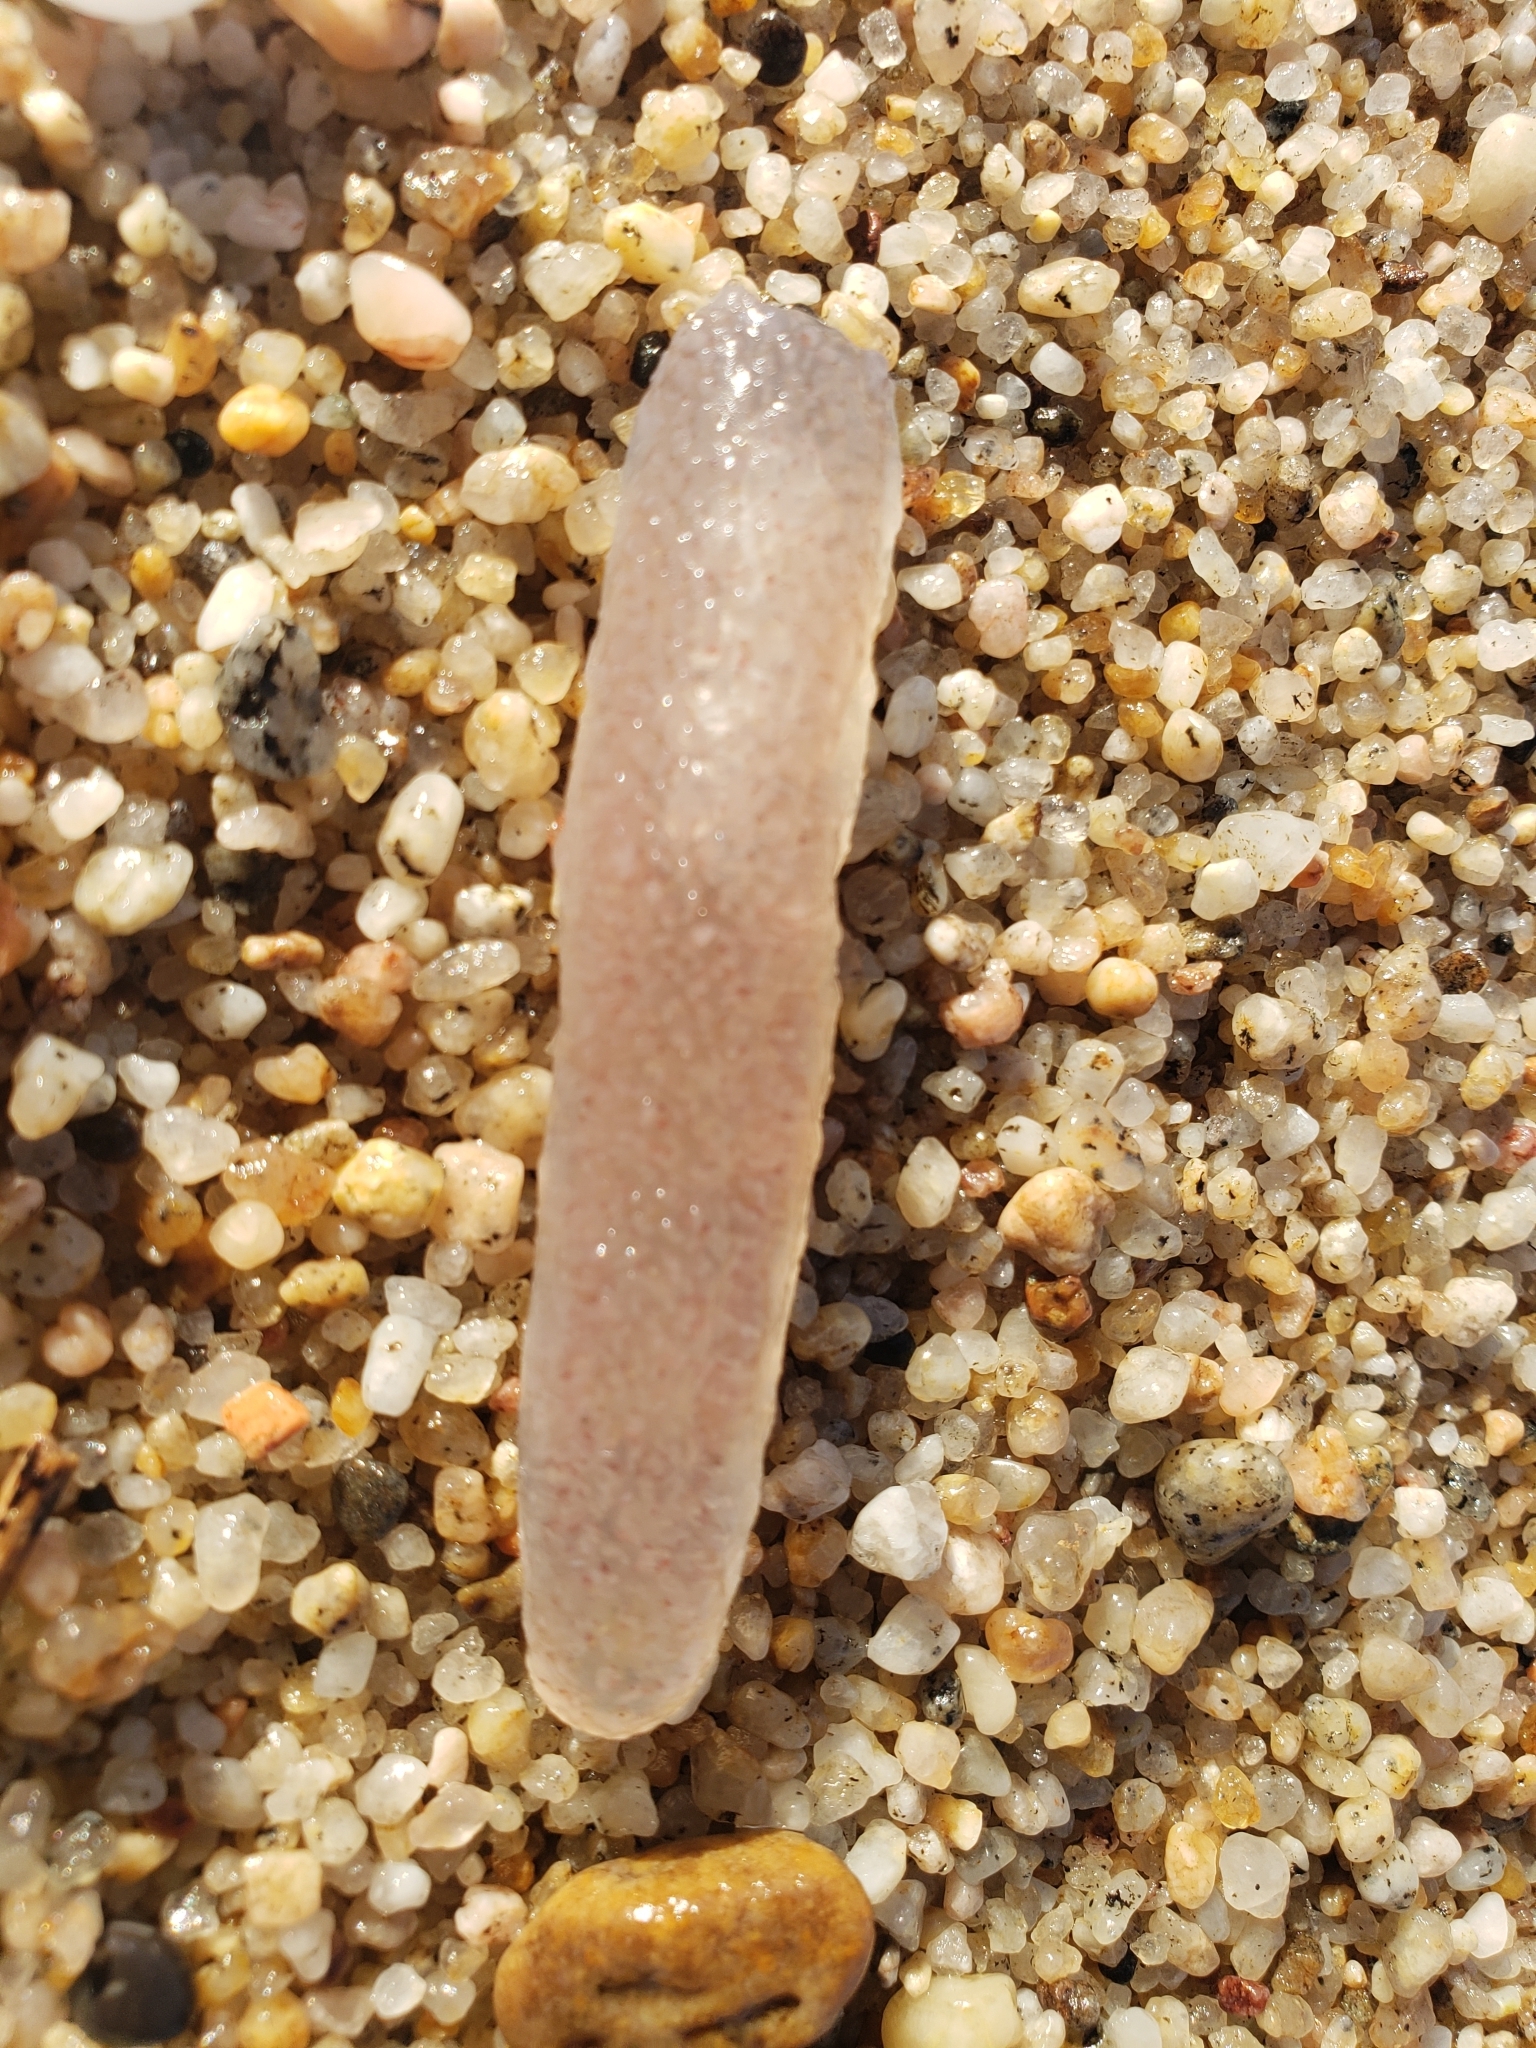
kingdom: Animalia
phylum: Chordata
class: Thaliacea
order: Pyrosomatida
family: Pyrosomatidae
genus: Pyrosoma
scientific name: Pyrosoma atlanticum
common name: Atlantic pyrosomes
